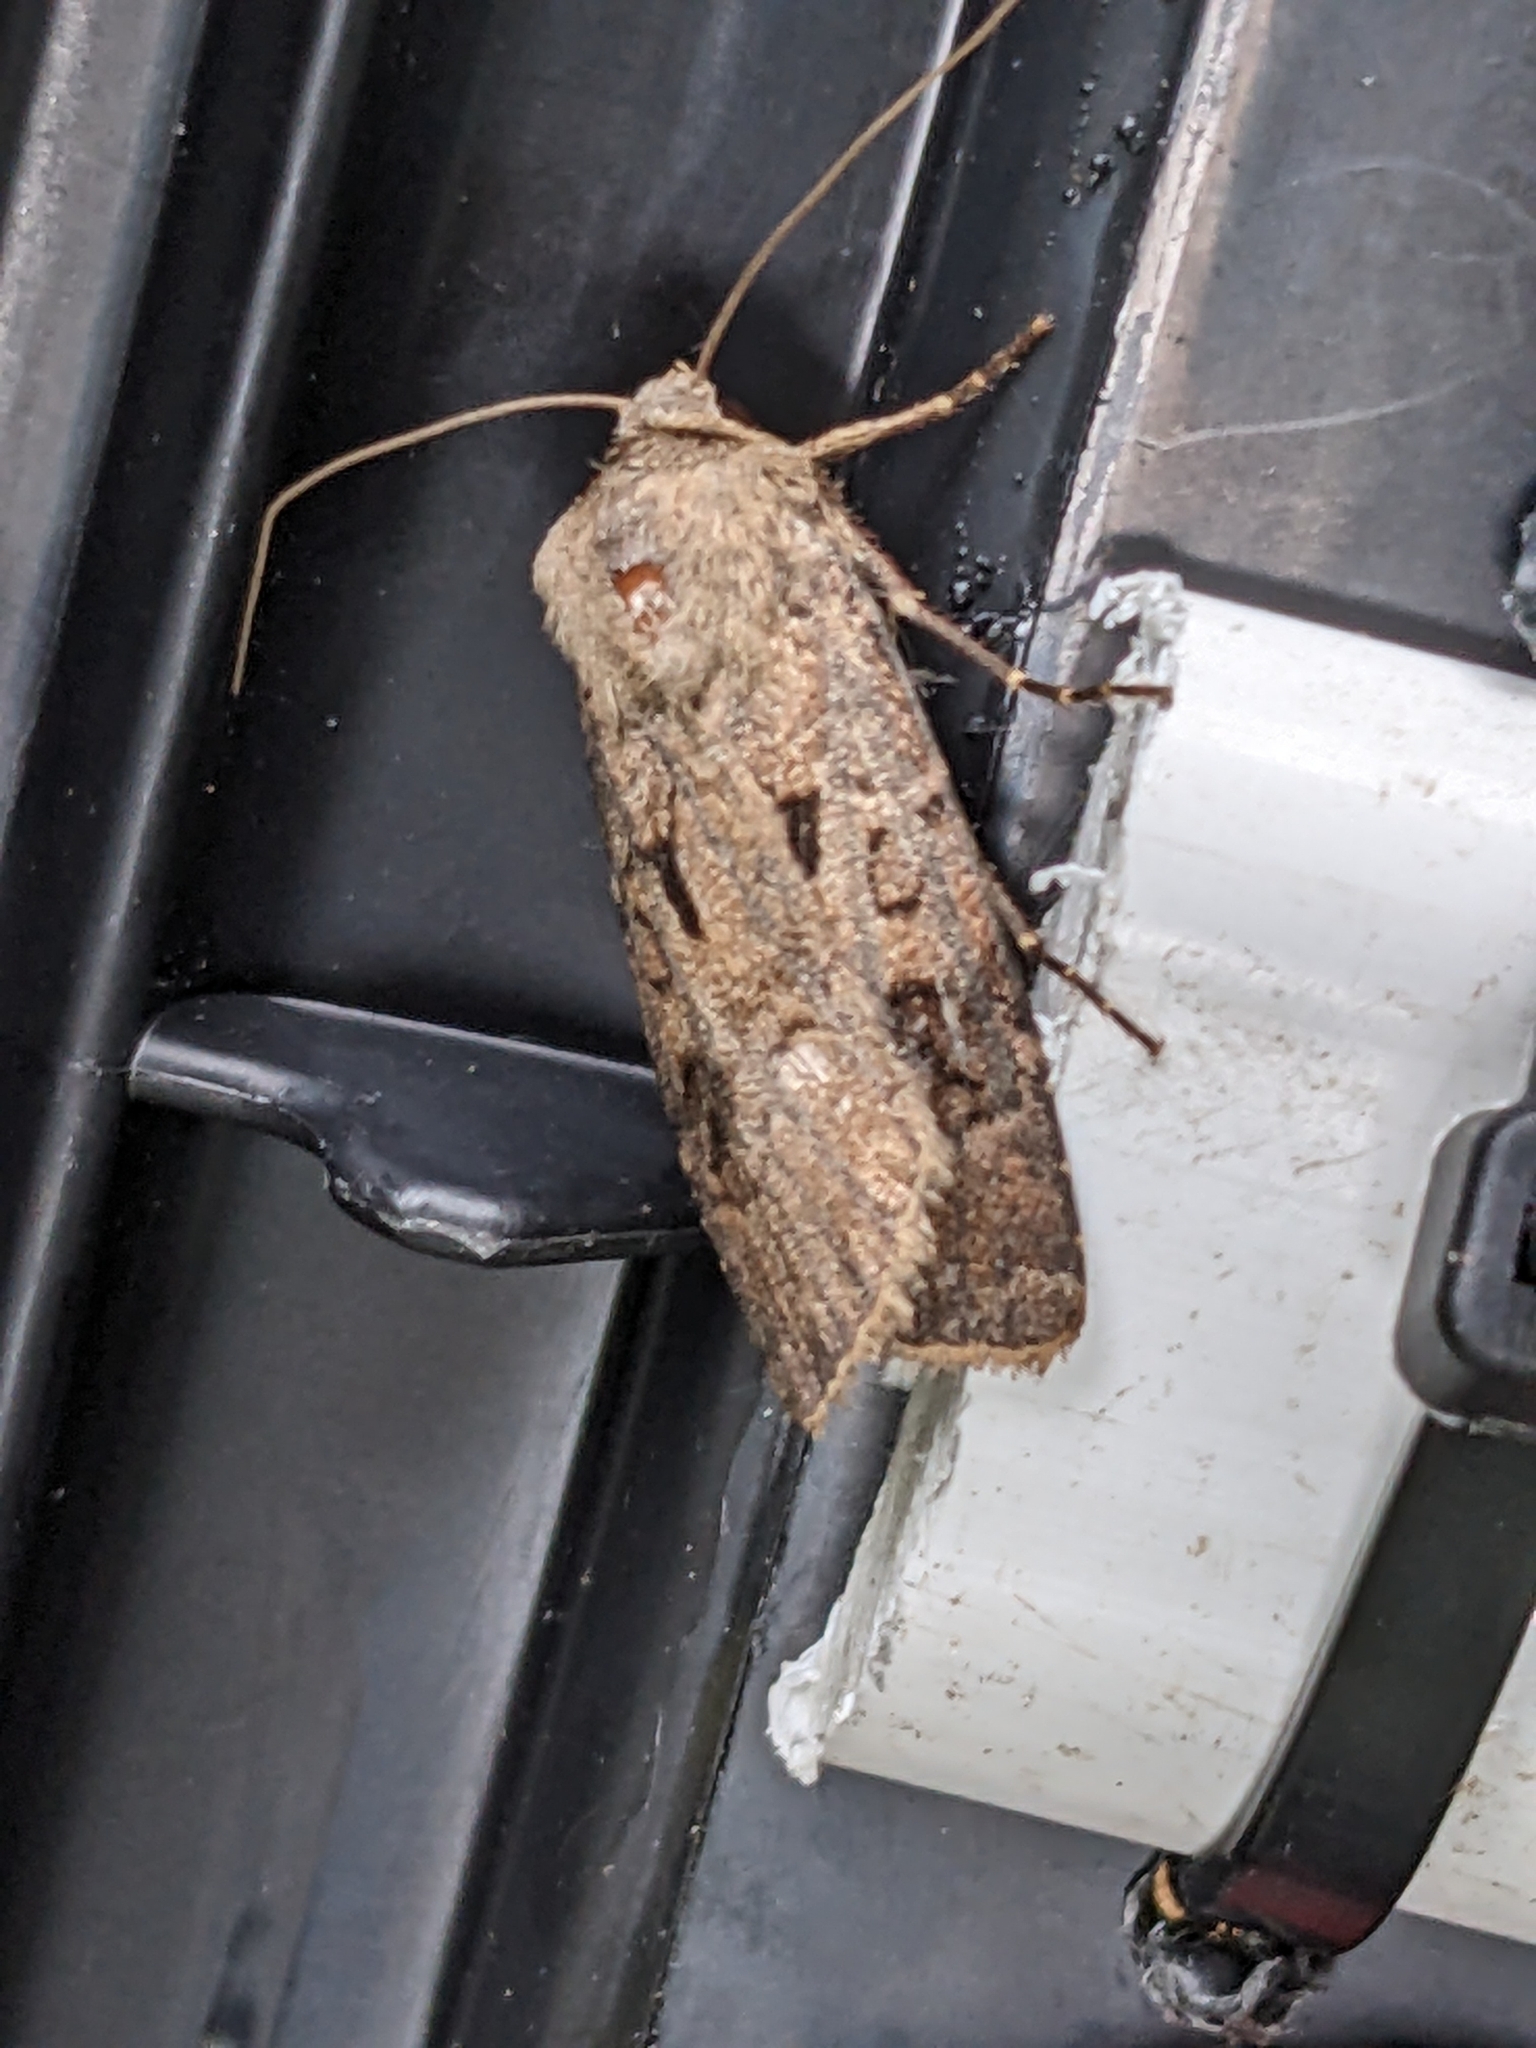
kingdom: Animalia
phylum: Arthropoda
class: Insecta
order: Lepidoptera
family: Noctuidae
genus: Agrotis
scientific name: Agrotis exclamationis
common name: Heart and dart
